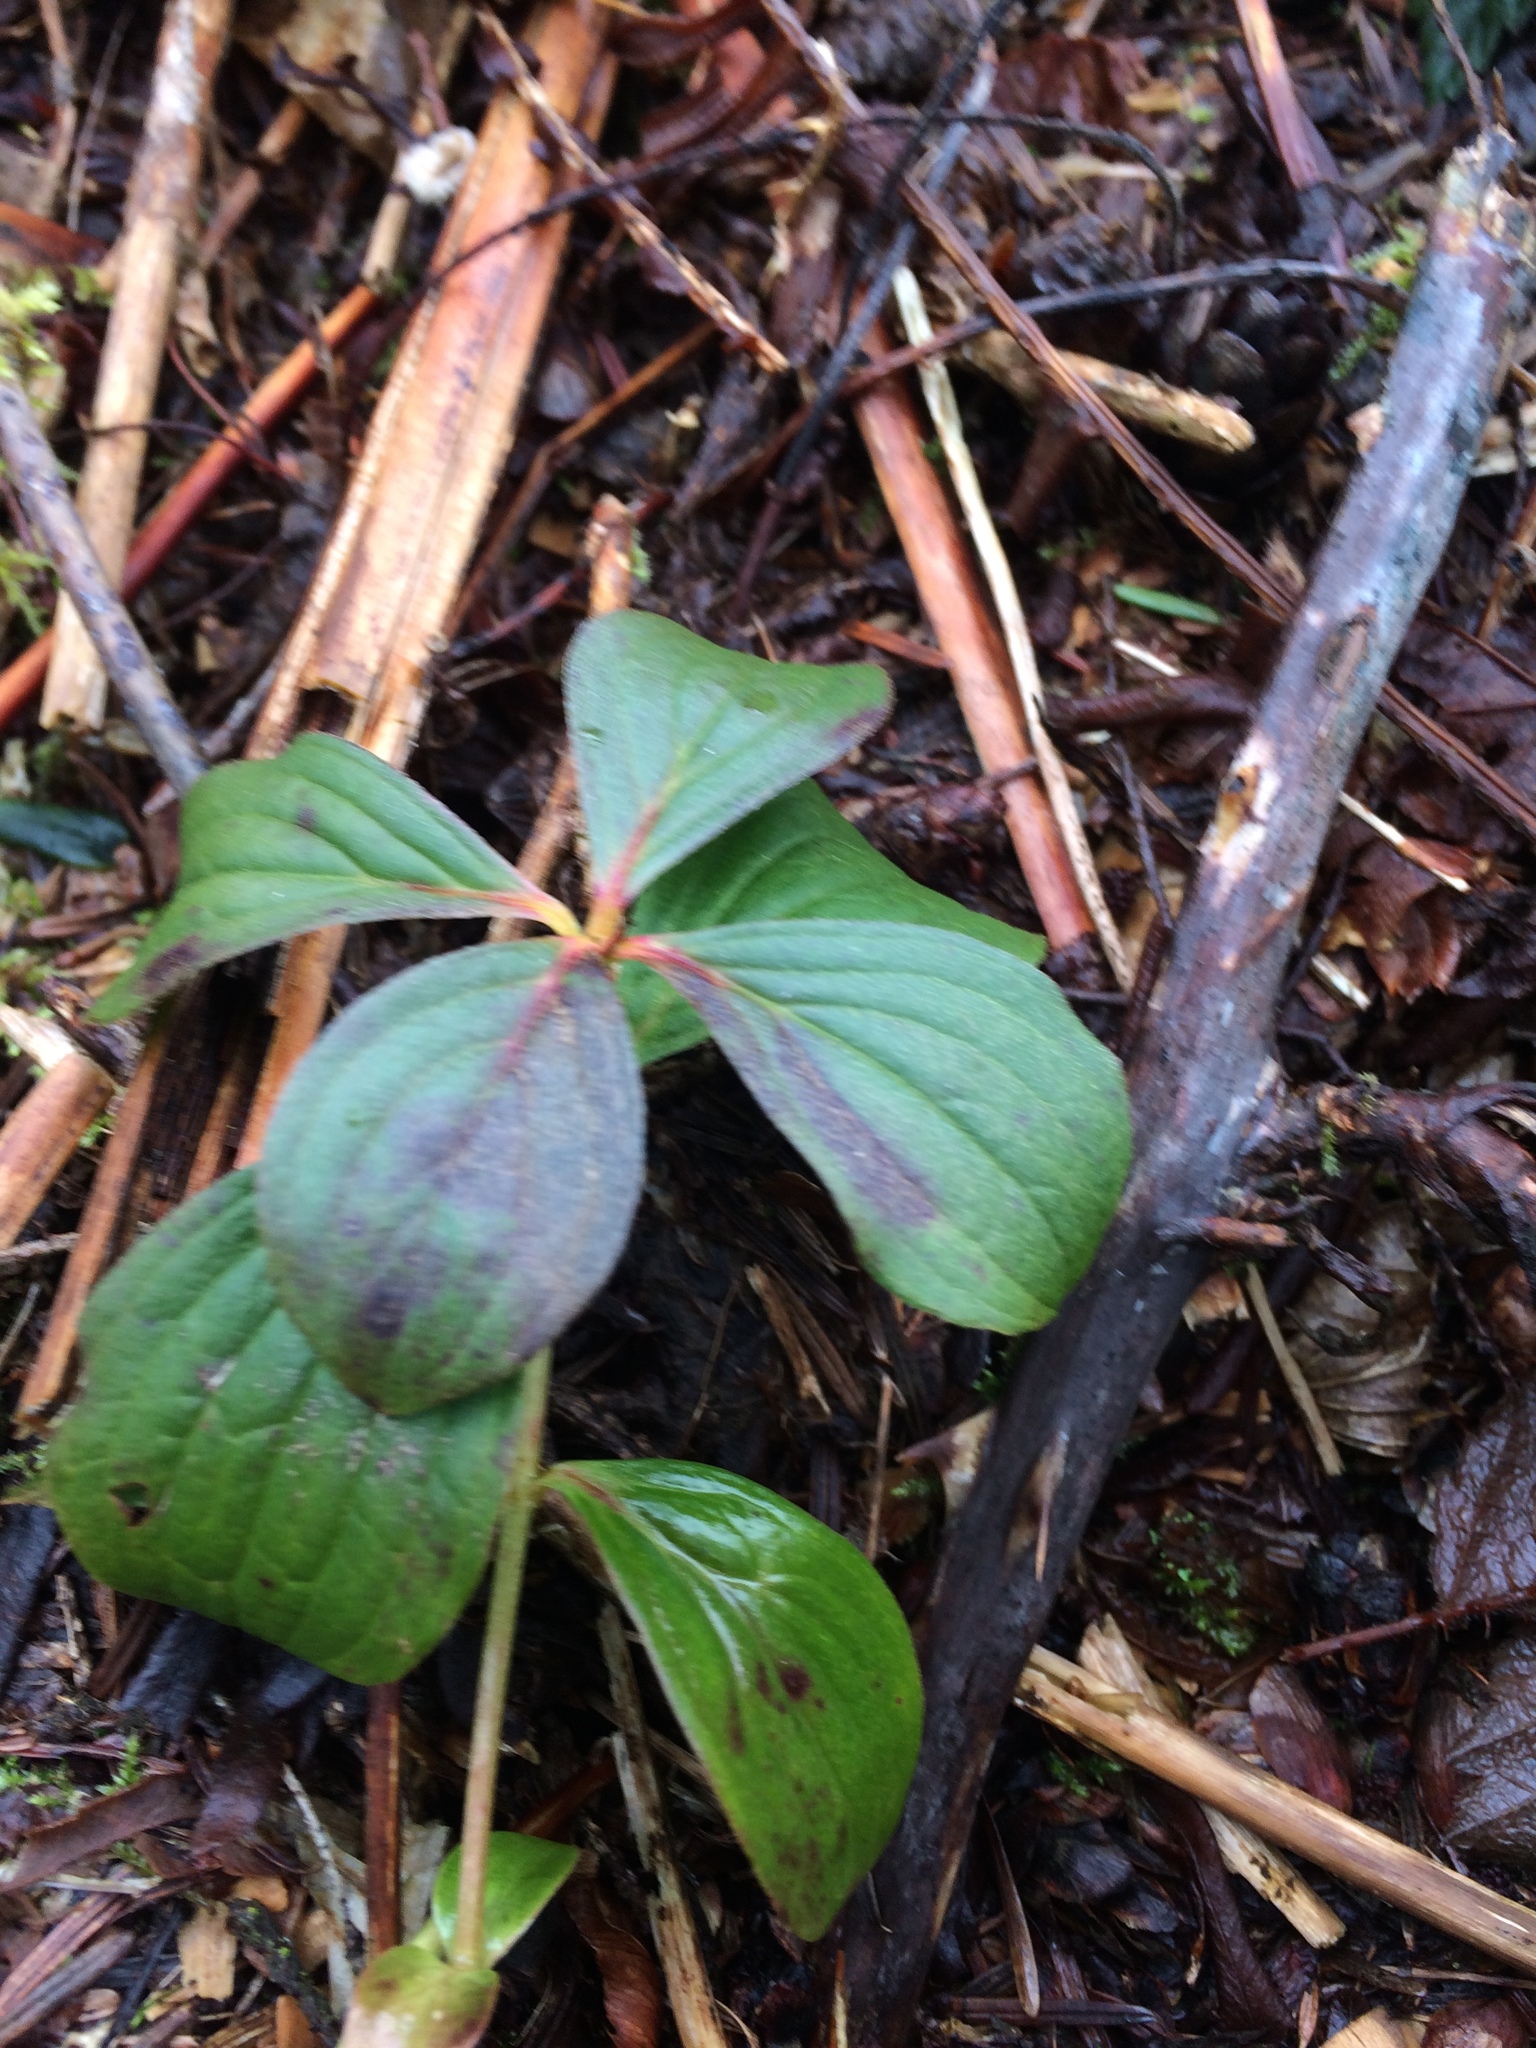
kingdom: Plantae
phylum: Tracheophyta
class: Magnoliopsida
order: Cornales
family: Cornaceae
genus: Cornus
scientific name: Cornus unalaschkensis
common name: Alaska bunchberry
